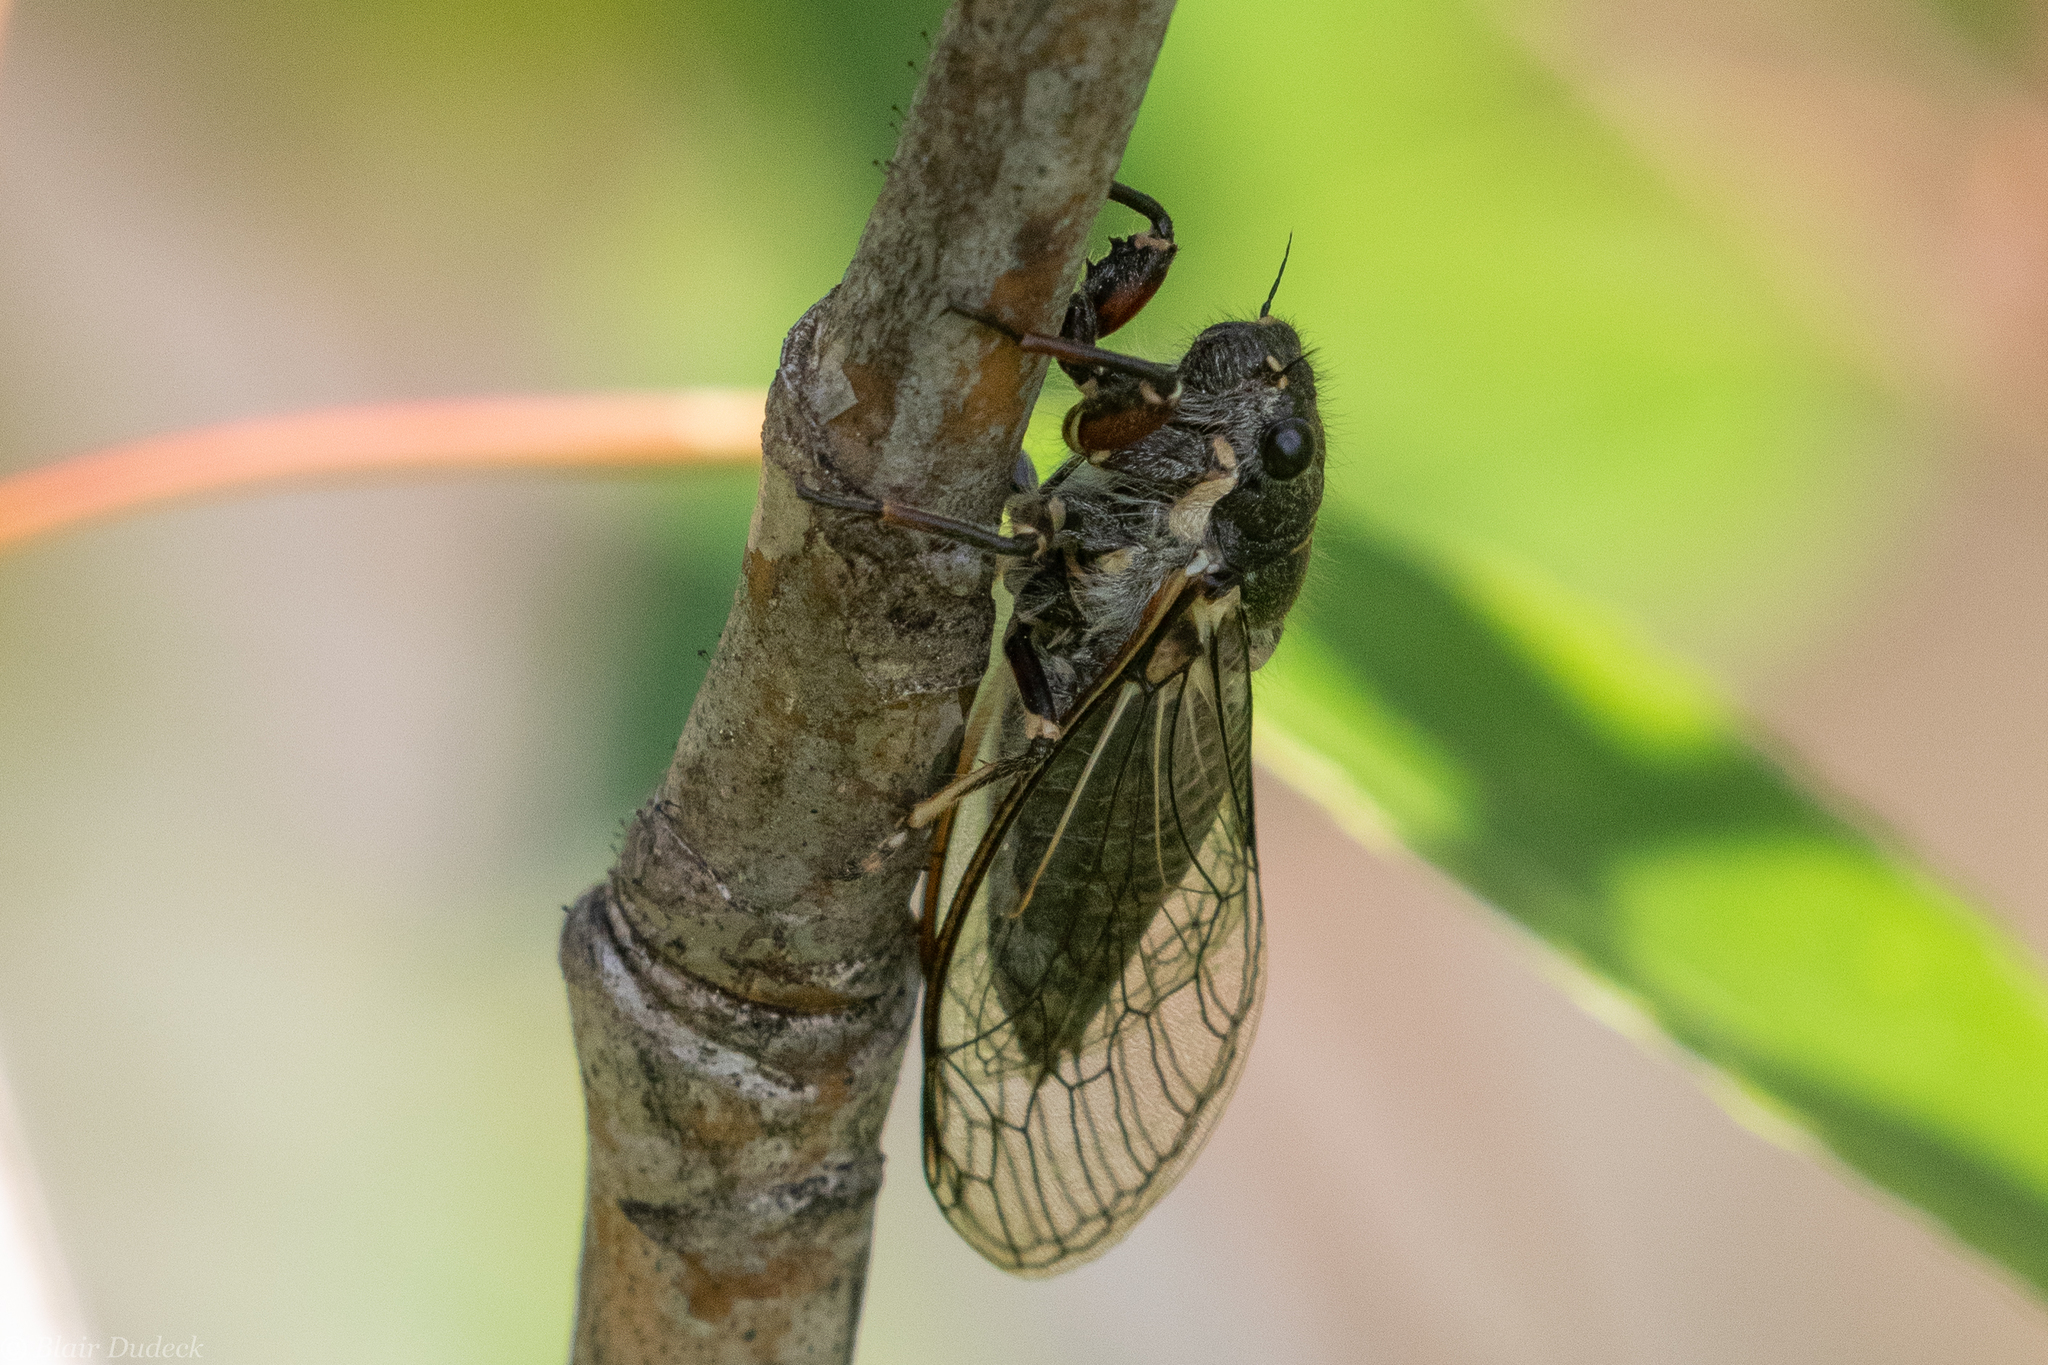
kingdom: Animalia
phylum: Arthropoda
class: Insecta
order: Hemiptera
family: Cicadidae
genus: Platypedia
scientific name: Platypedia areolata
